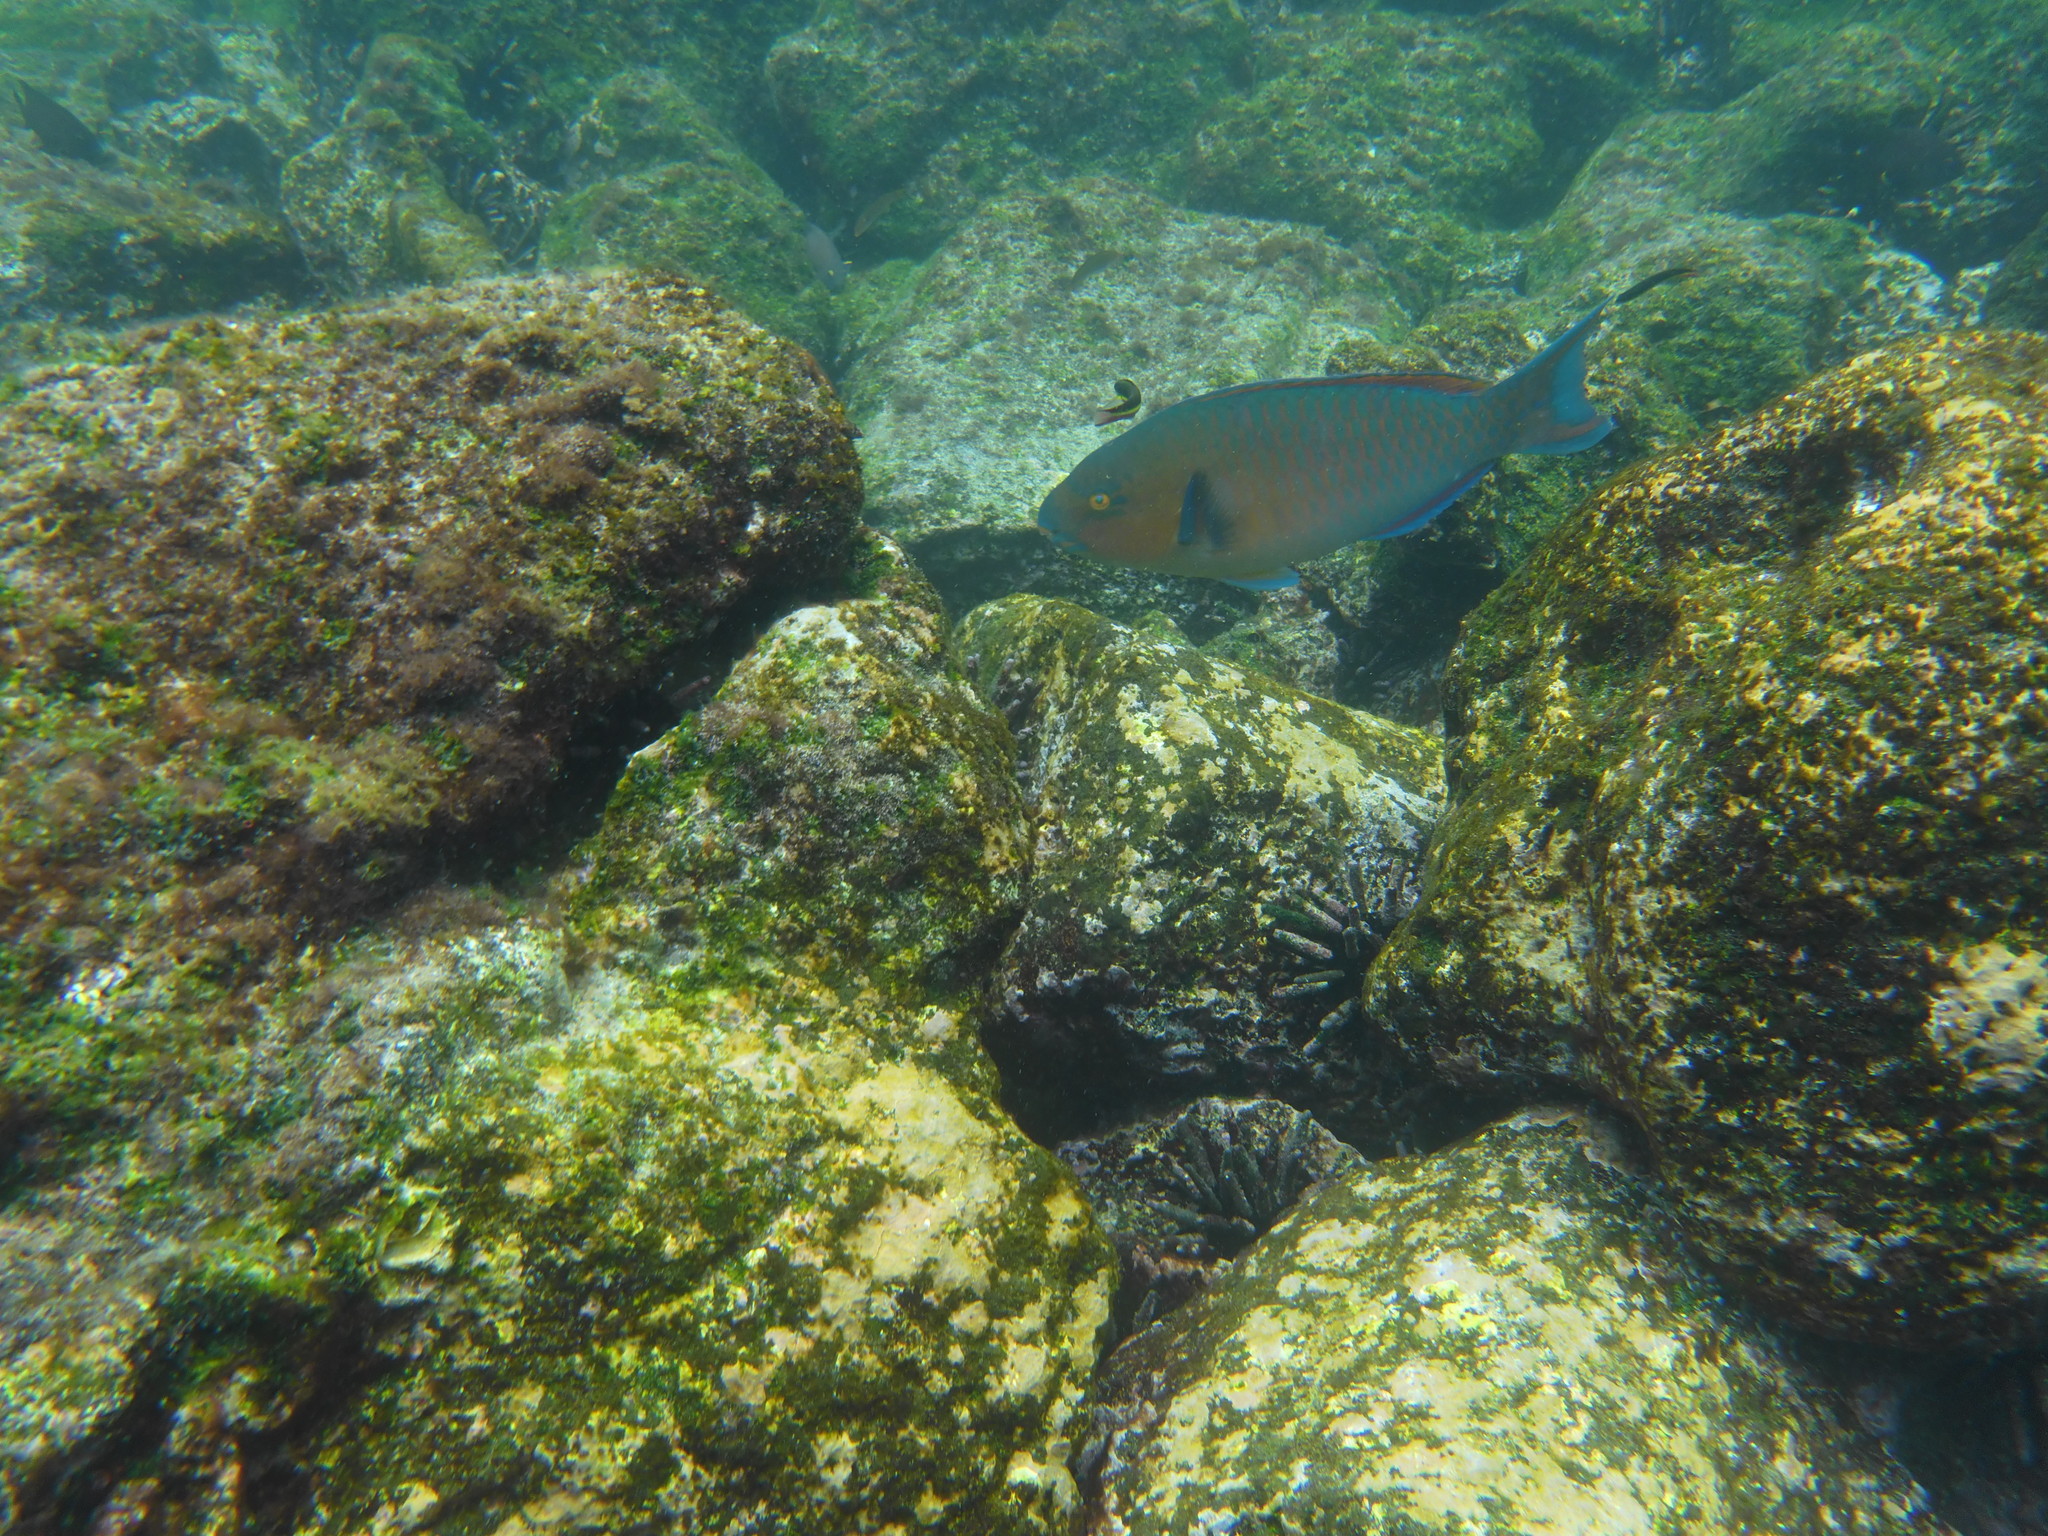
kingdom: Animalia
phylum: Chordata
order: Perciformes
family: Scaridae
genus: Scarus
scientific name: Scarus ghobban
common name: Blue-barred parrotfish
